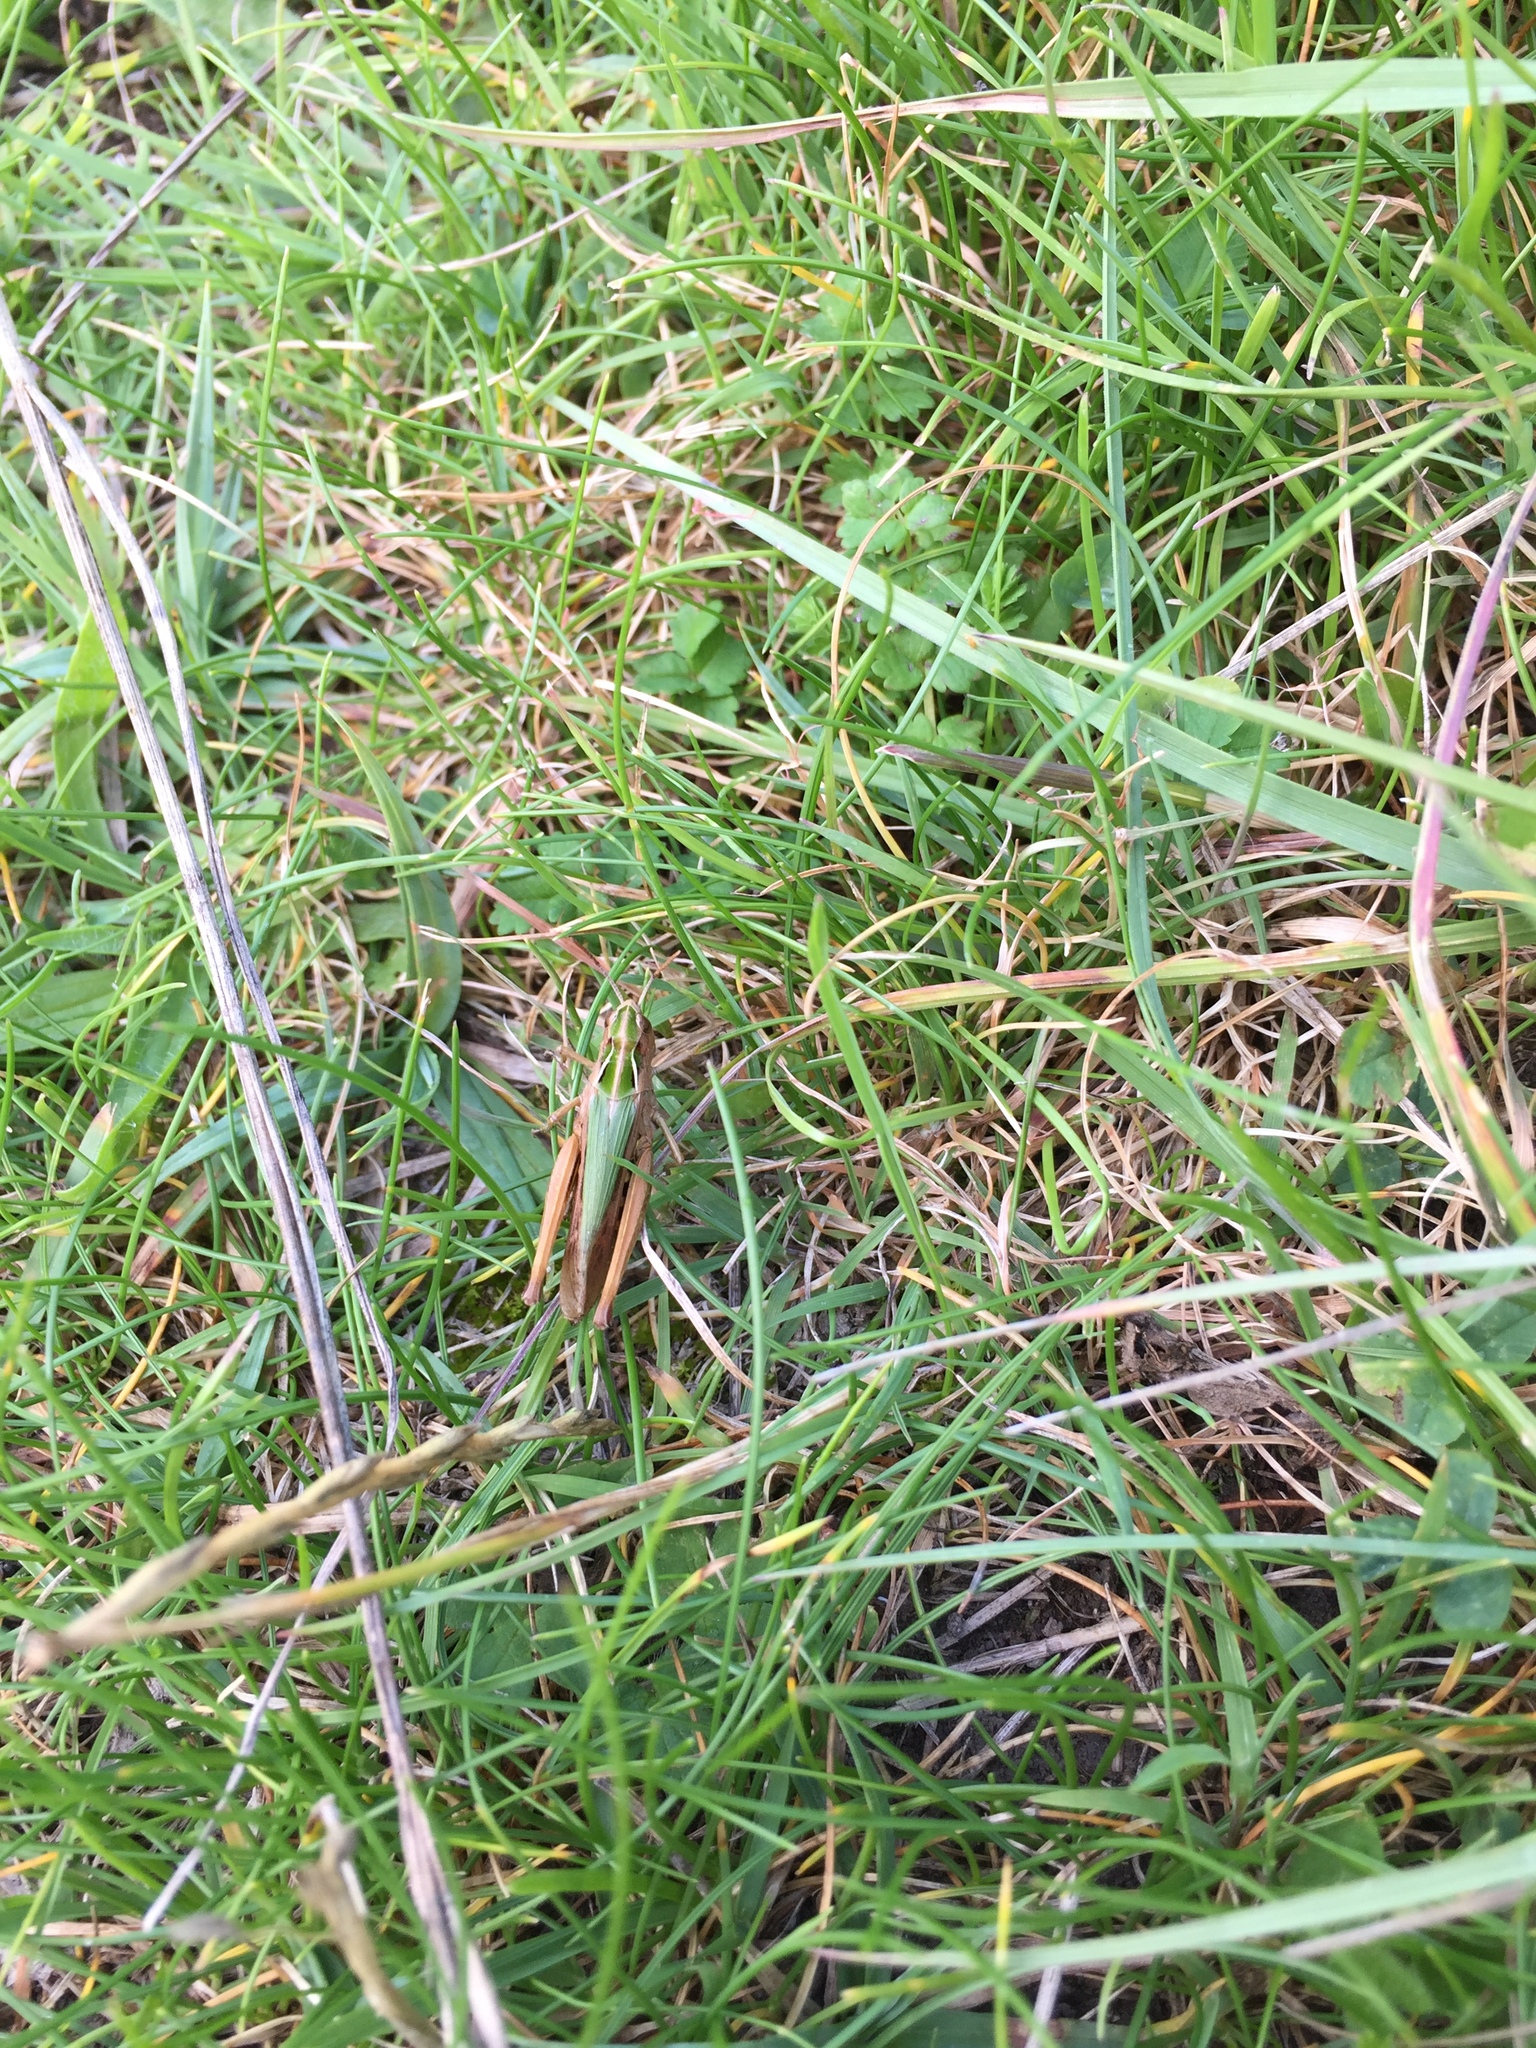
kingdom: Animalia
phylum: Arthropoda
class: Insecta
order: Orthoptera
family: Acrididae
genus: Omocestus
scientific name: Omocestus viridulus
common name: Common green grasshopper
